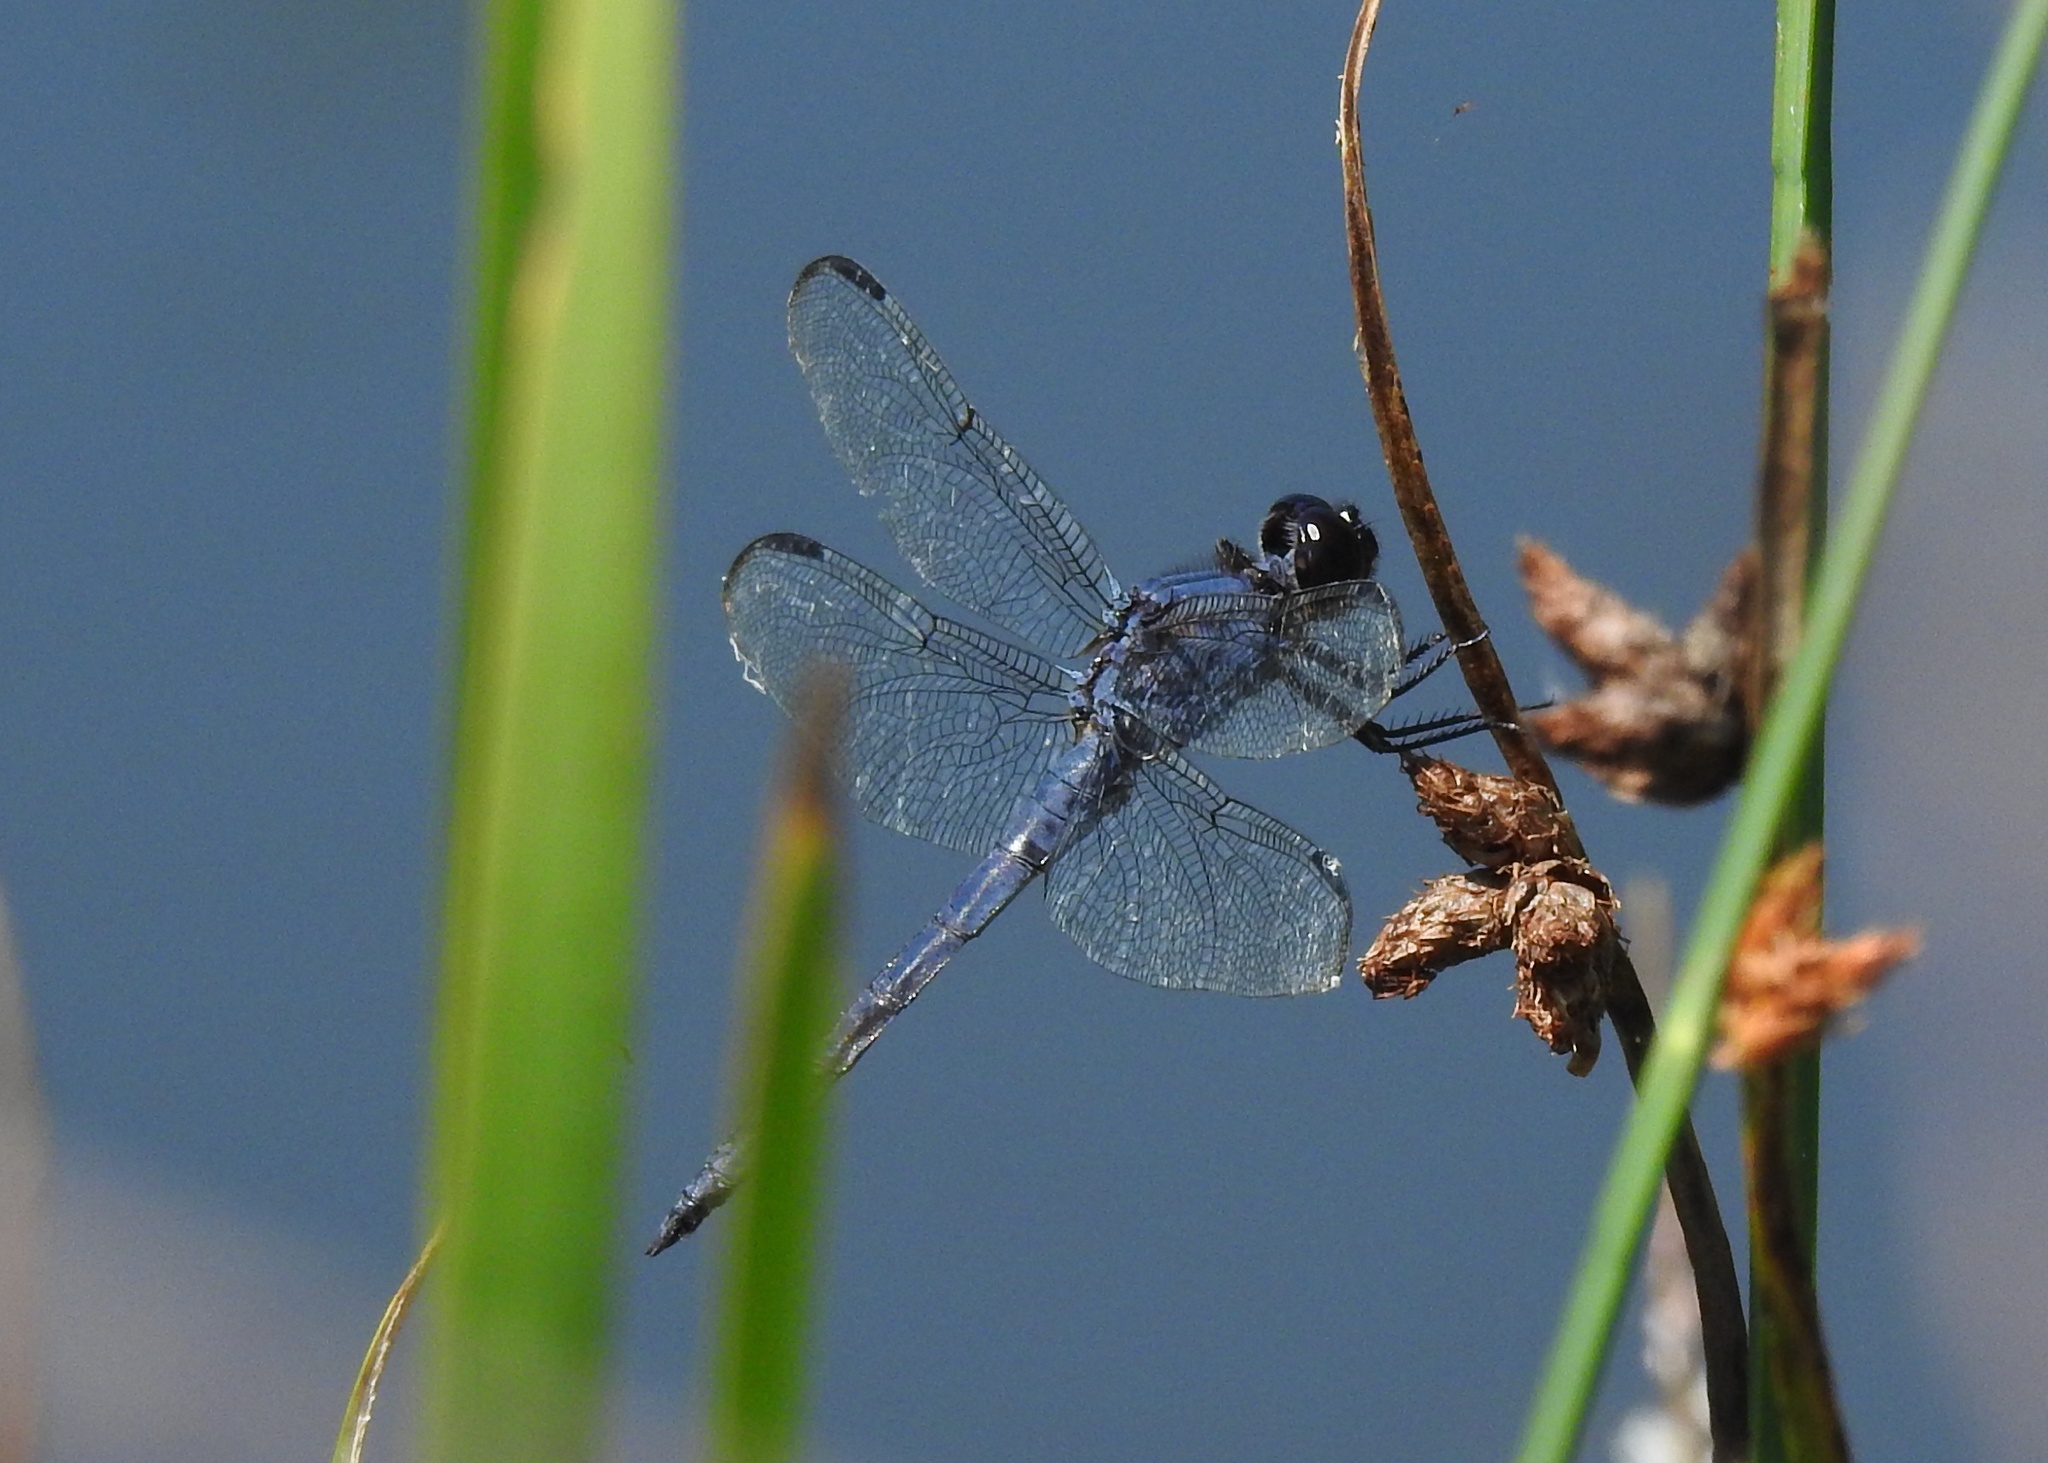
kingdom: Animalia
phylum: Arthropoda
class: Insecta
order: Odonata
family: Libellulidae
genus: Libellula
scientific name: Libellula incesta
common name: Slaty skimmer
